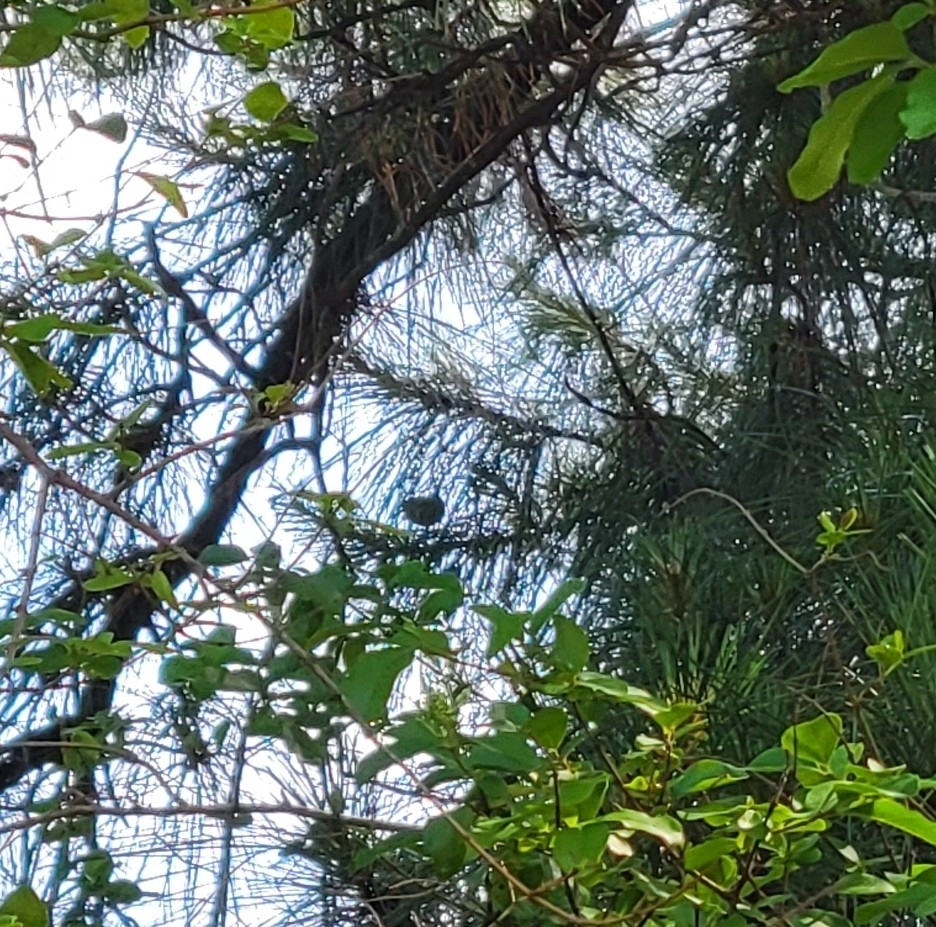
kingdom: Animalia
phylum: Chordata
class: Aves
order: Passeriformes
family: Troglodytidae
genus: Troglodytes
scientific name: Troglodytes aedon
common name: House wren
